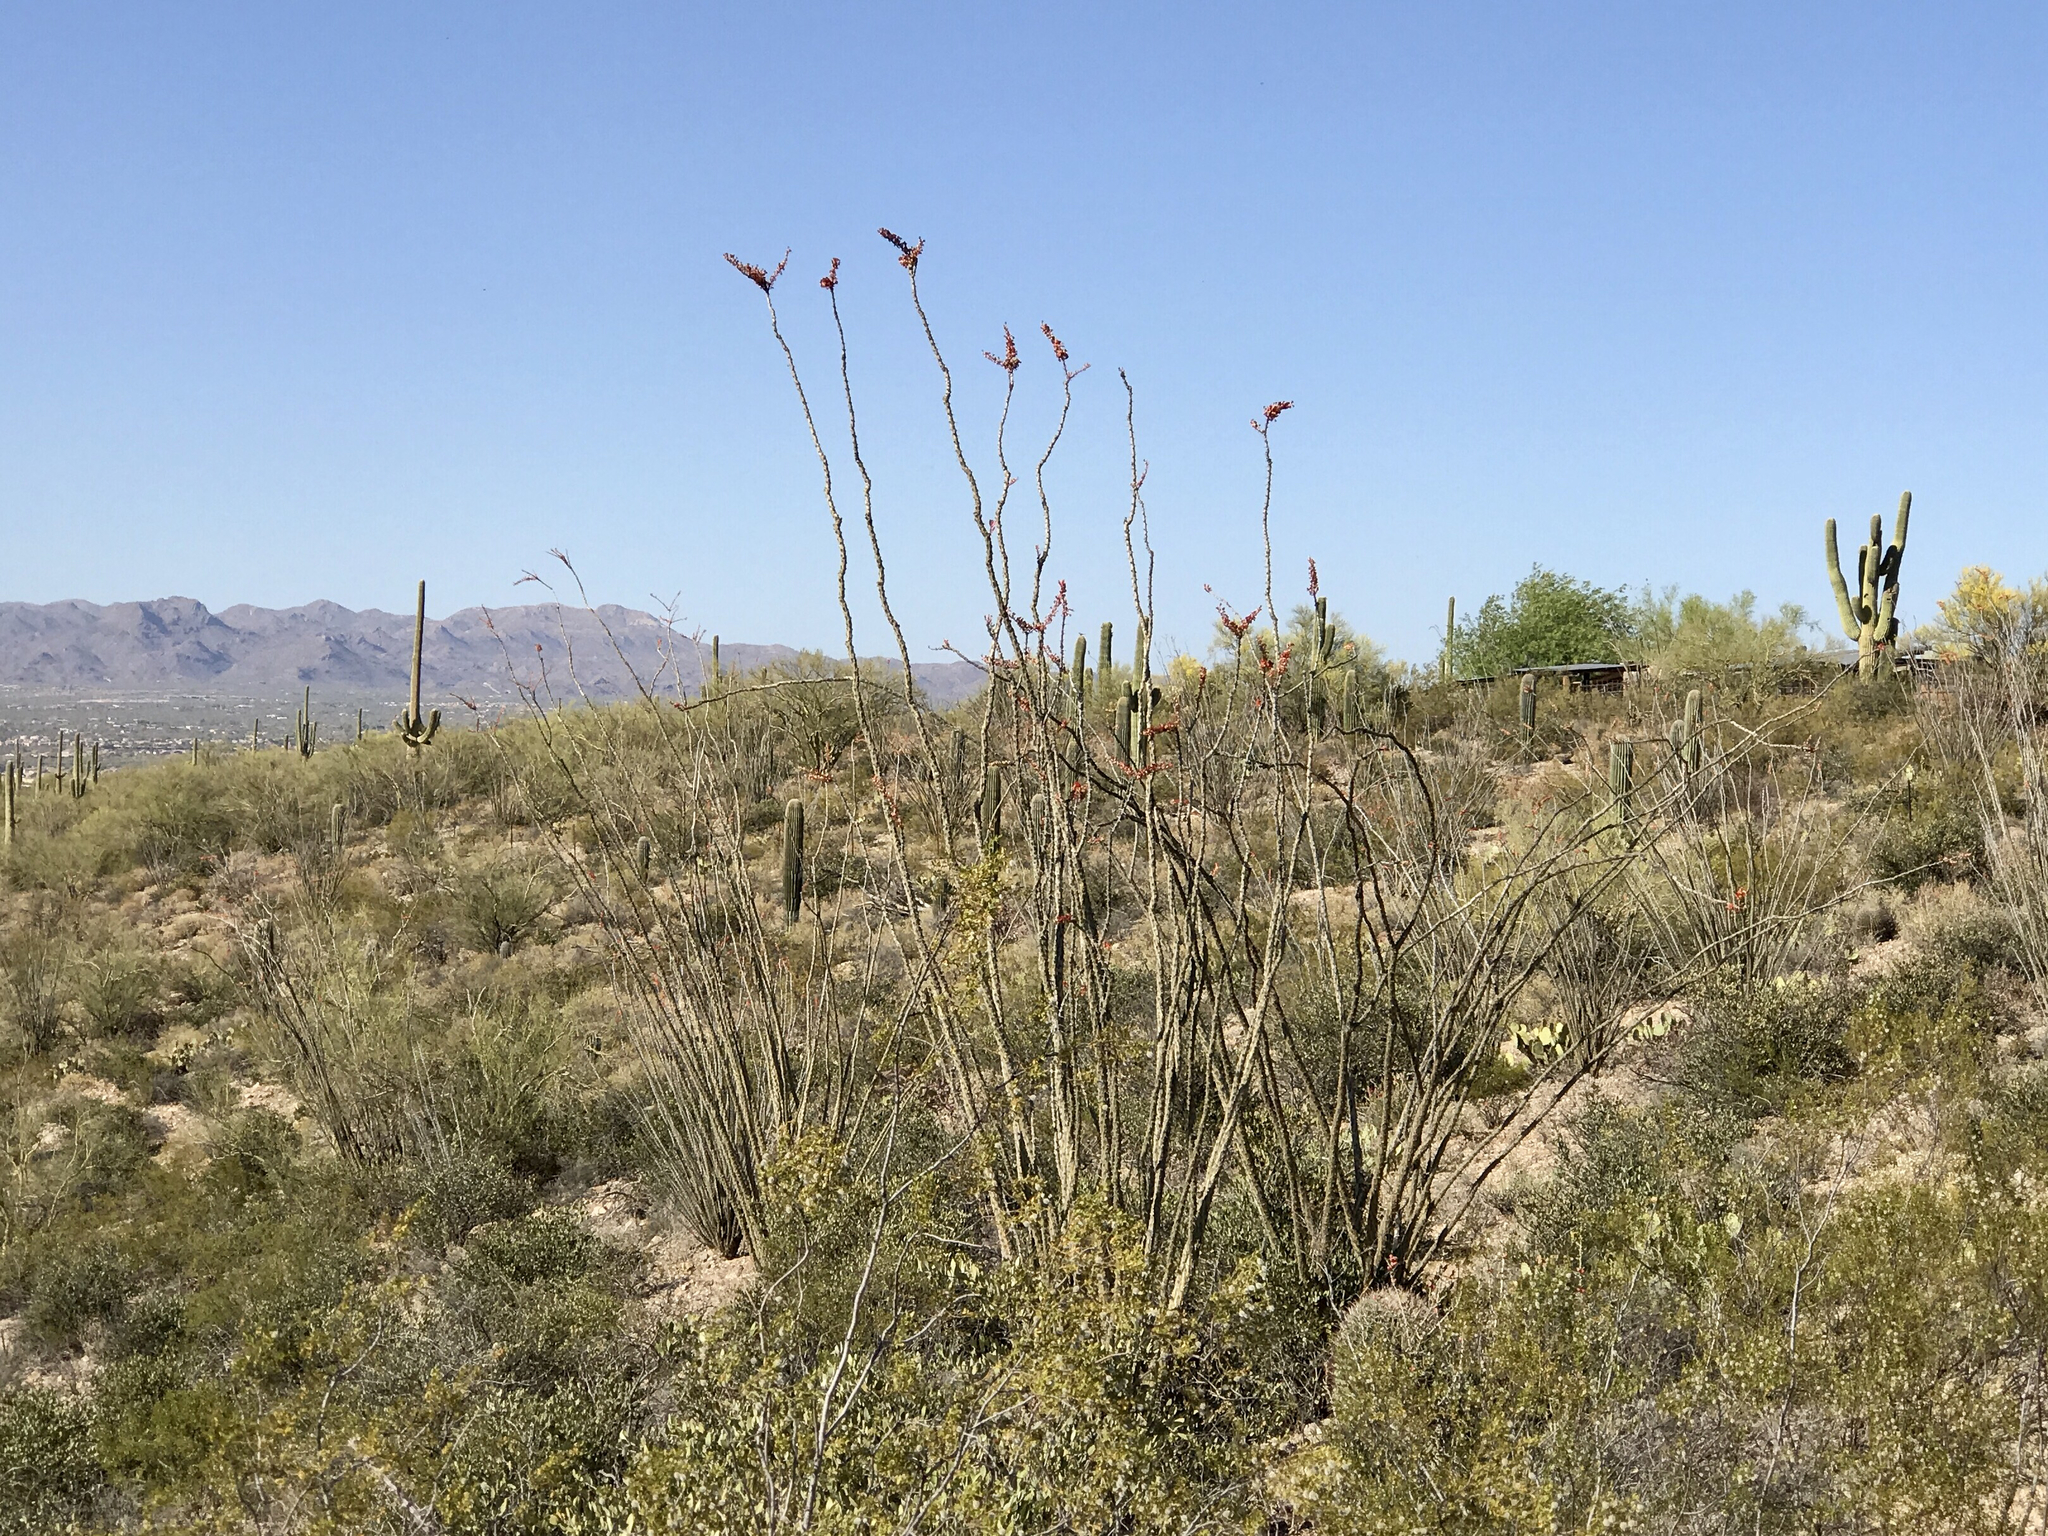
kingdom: Plantae
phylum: Tracheophyta
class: Magnoliopsida
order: Ericales
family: Fouquieriaceae
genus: Fouquieria
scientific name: Fouquieria splendens
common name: Vine-cactus
